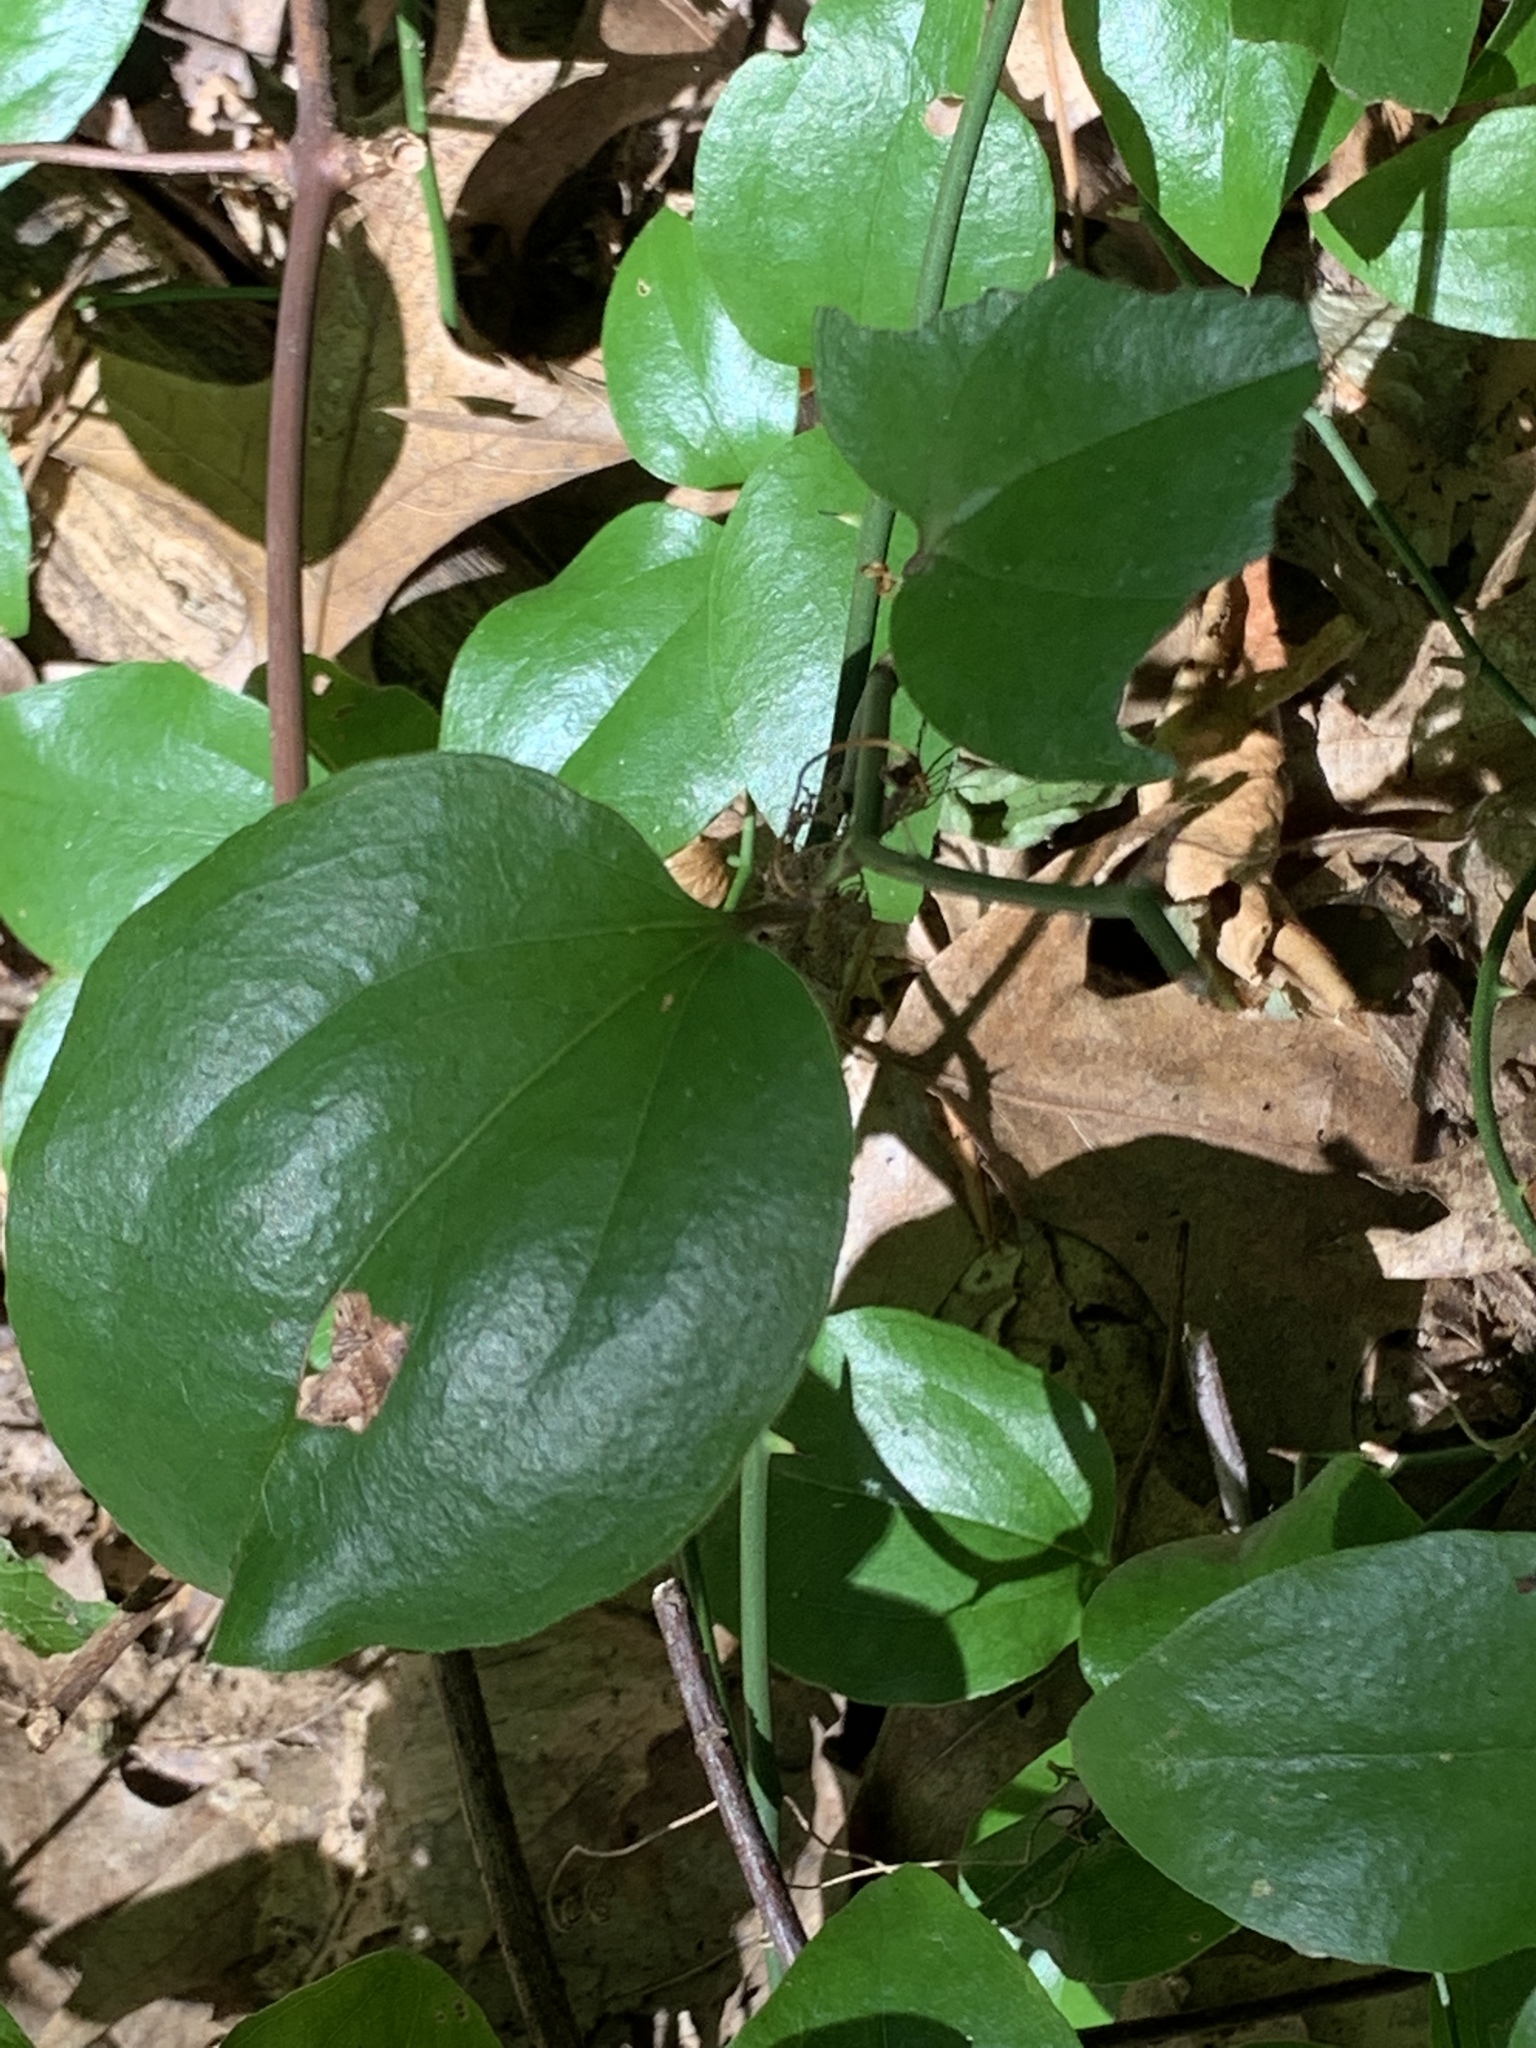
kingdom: Plantae
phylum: Tracheophyta
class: Liliopsida
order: Liliales
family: Smilacaceae
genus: Smilax
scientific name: Smilax rotundifolia
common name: Bullbriar
